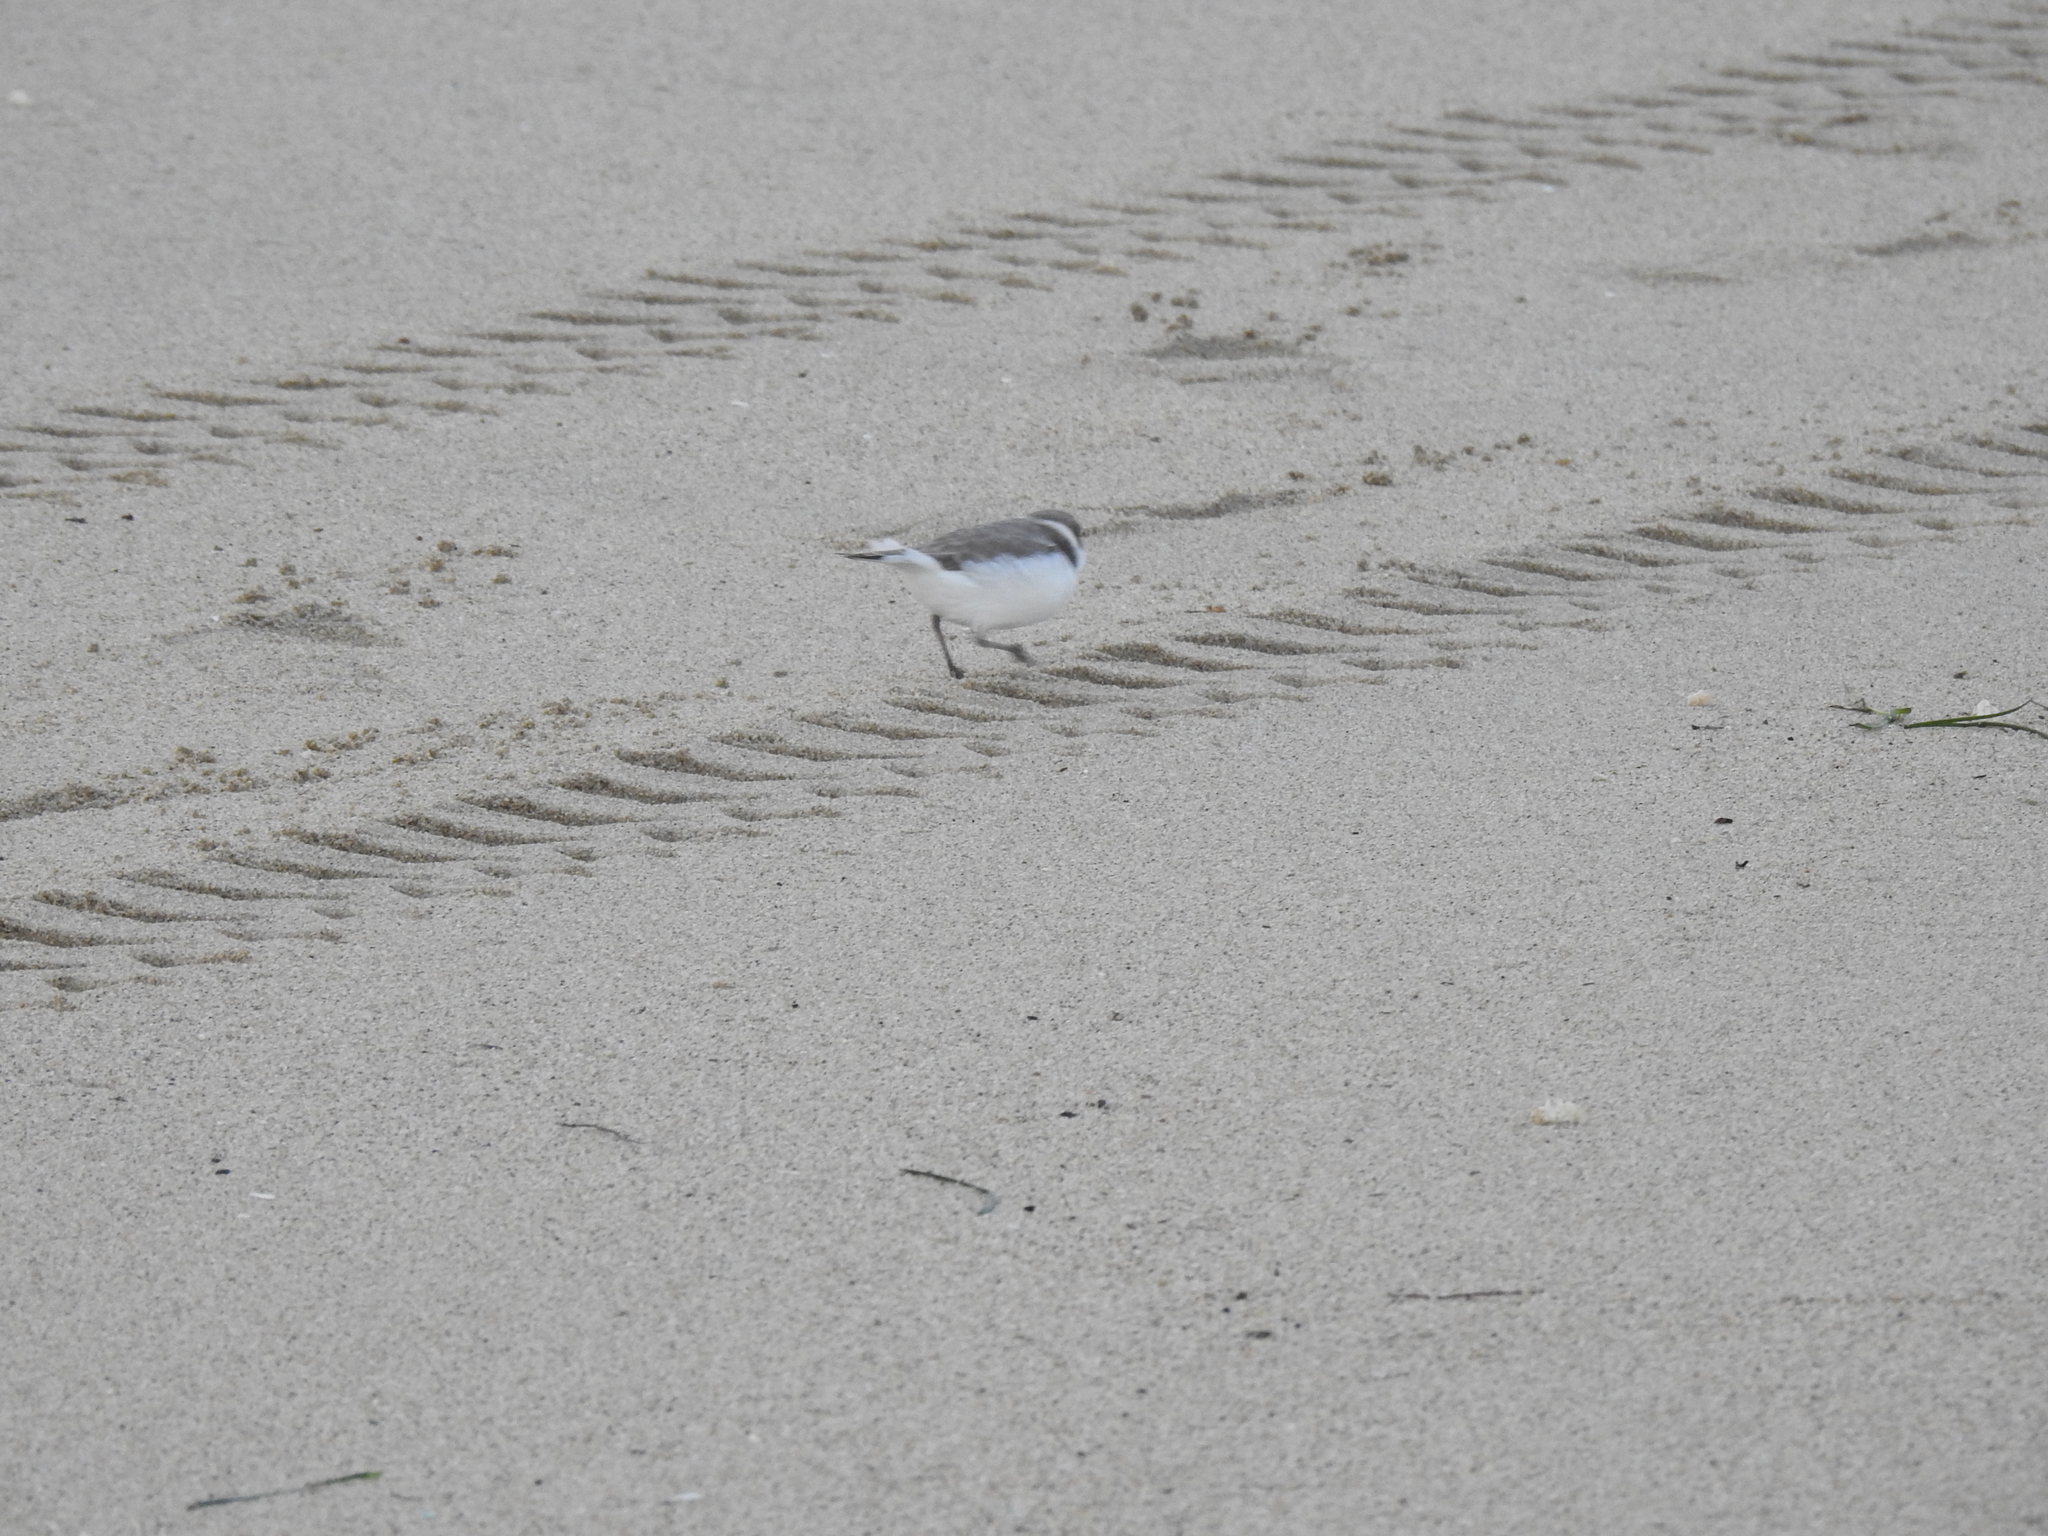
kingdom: Animalia
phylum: Chordata
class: Aves
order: Charadriiformes
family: Charadriidae
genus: Anarhynchus
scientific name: Anarhynchus
